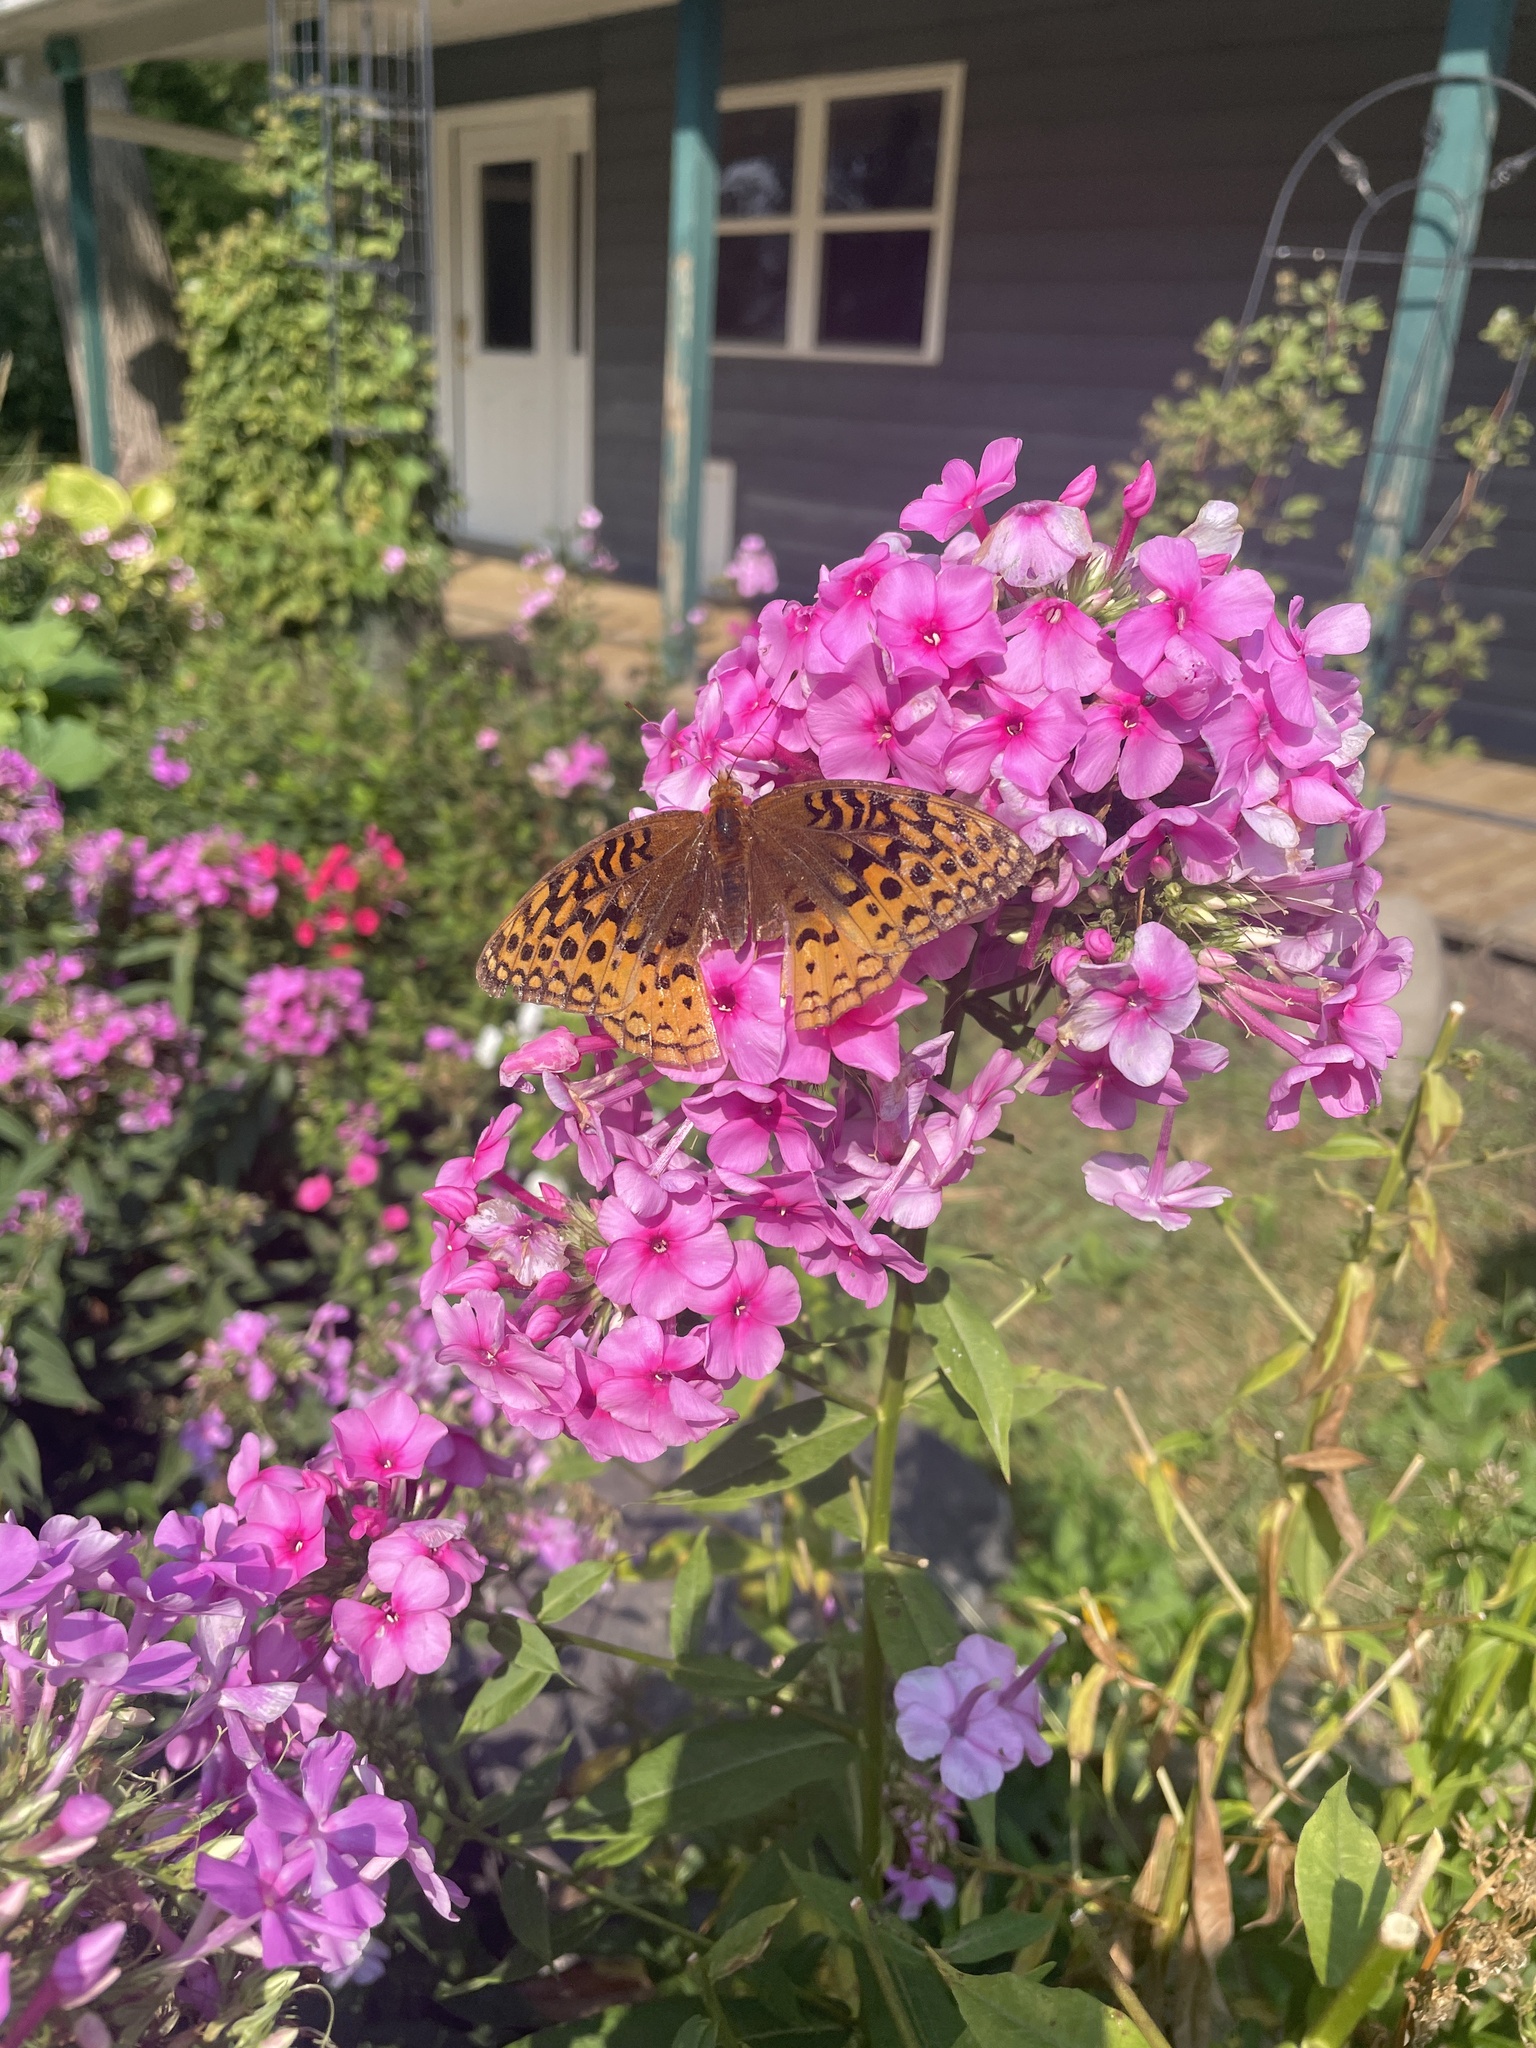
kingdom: Animalia
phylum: Arthropoda
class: Insecta
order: Lepidoptera
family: Nymphalidae
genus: Speyeria
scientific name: Speyeria cybele
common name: Great spangled fritillary
